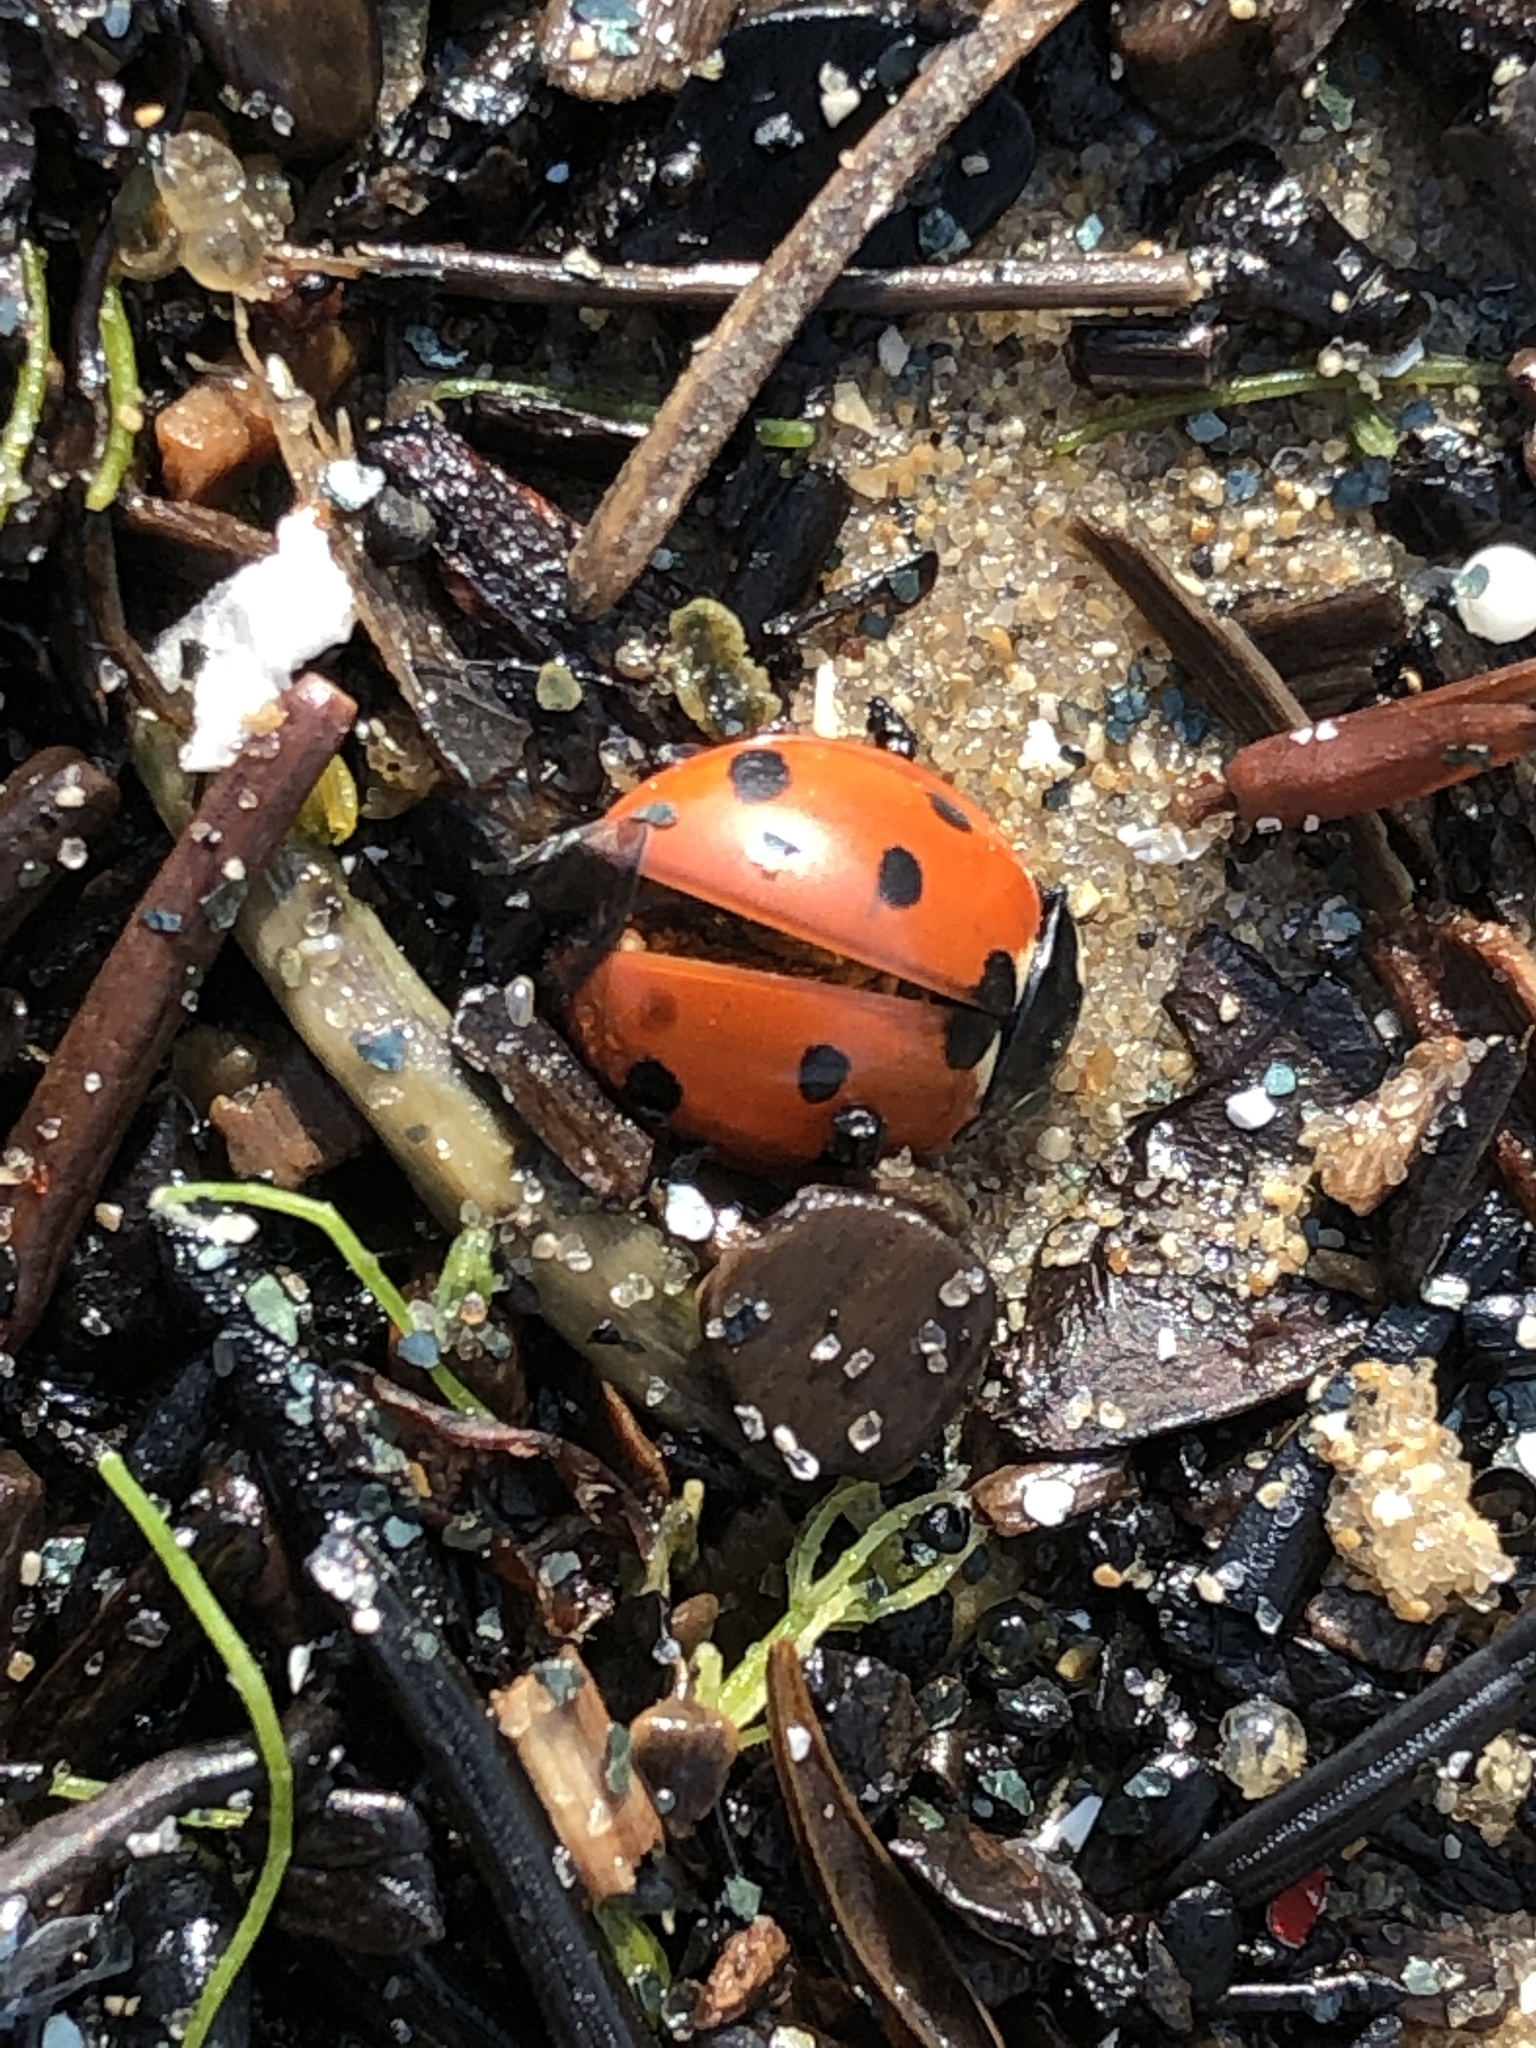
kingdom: Animalia
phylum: Arthropoda
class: Insecta
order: Coleoptera
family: Coccinellidae
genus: Coccinella
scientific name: Coccinella septempunctata
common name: Sevenspotted lady beetle
